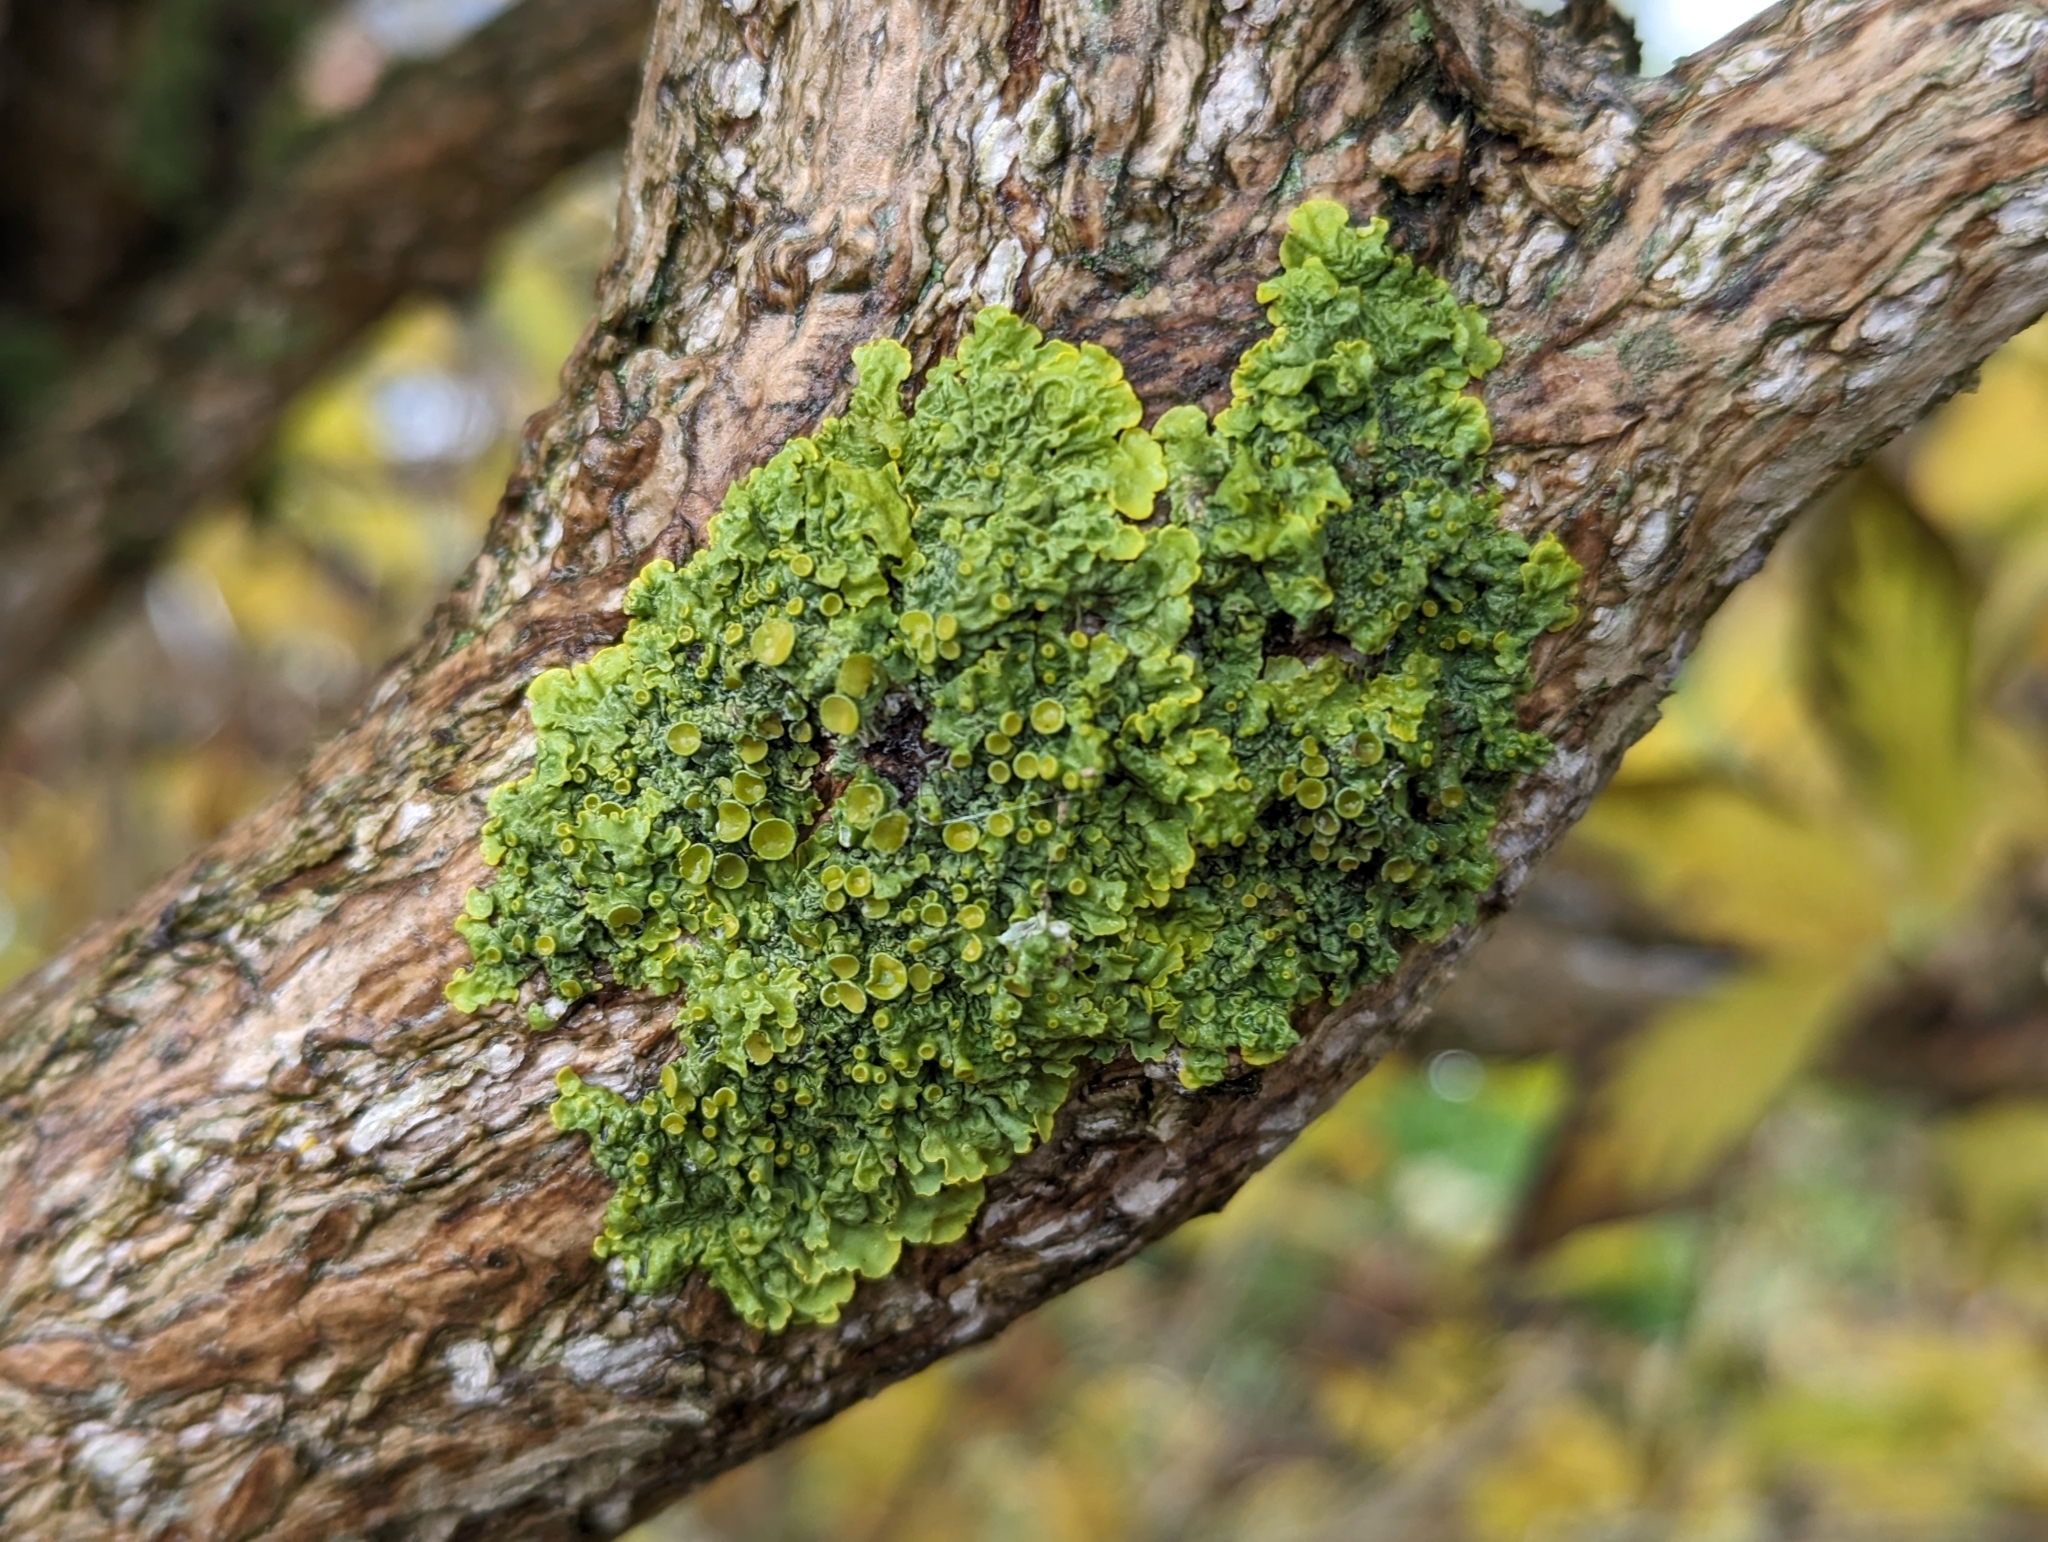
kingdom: Fungi
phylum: Ascomycota
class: Lecanoromycetes
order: Teloschistales
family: Teloschistaceae
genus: Xanthoria
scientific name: Xanthoria parietina
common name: Common orange lichen
